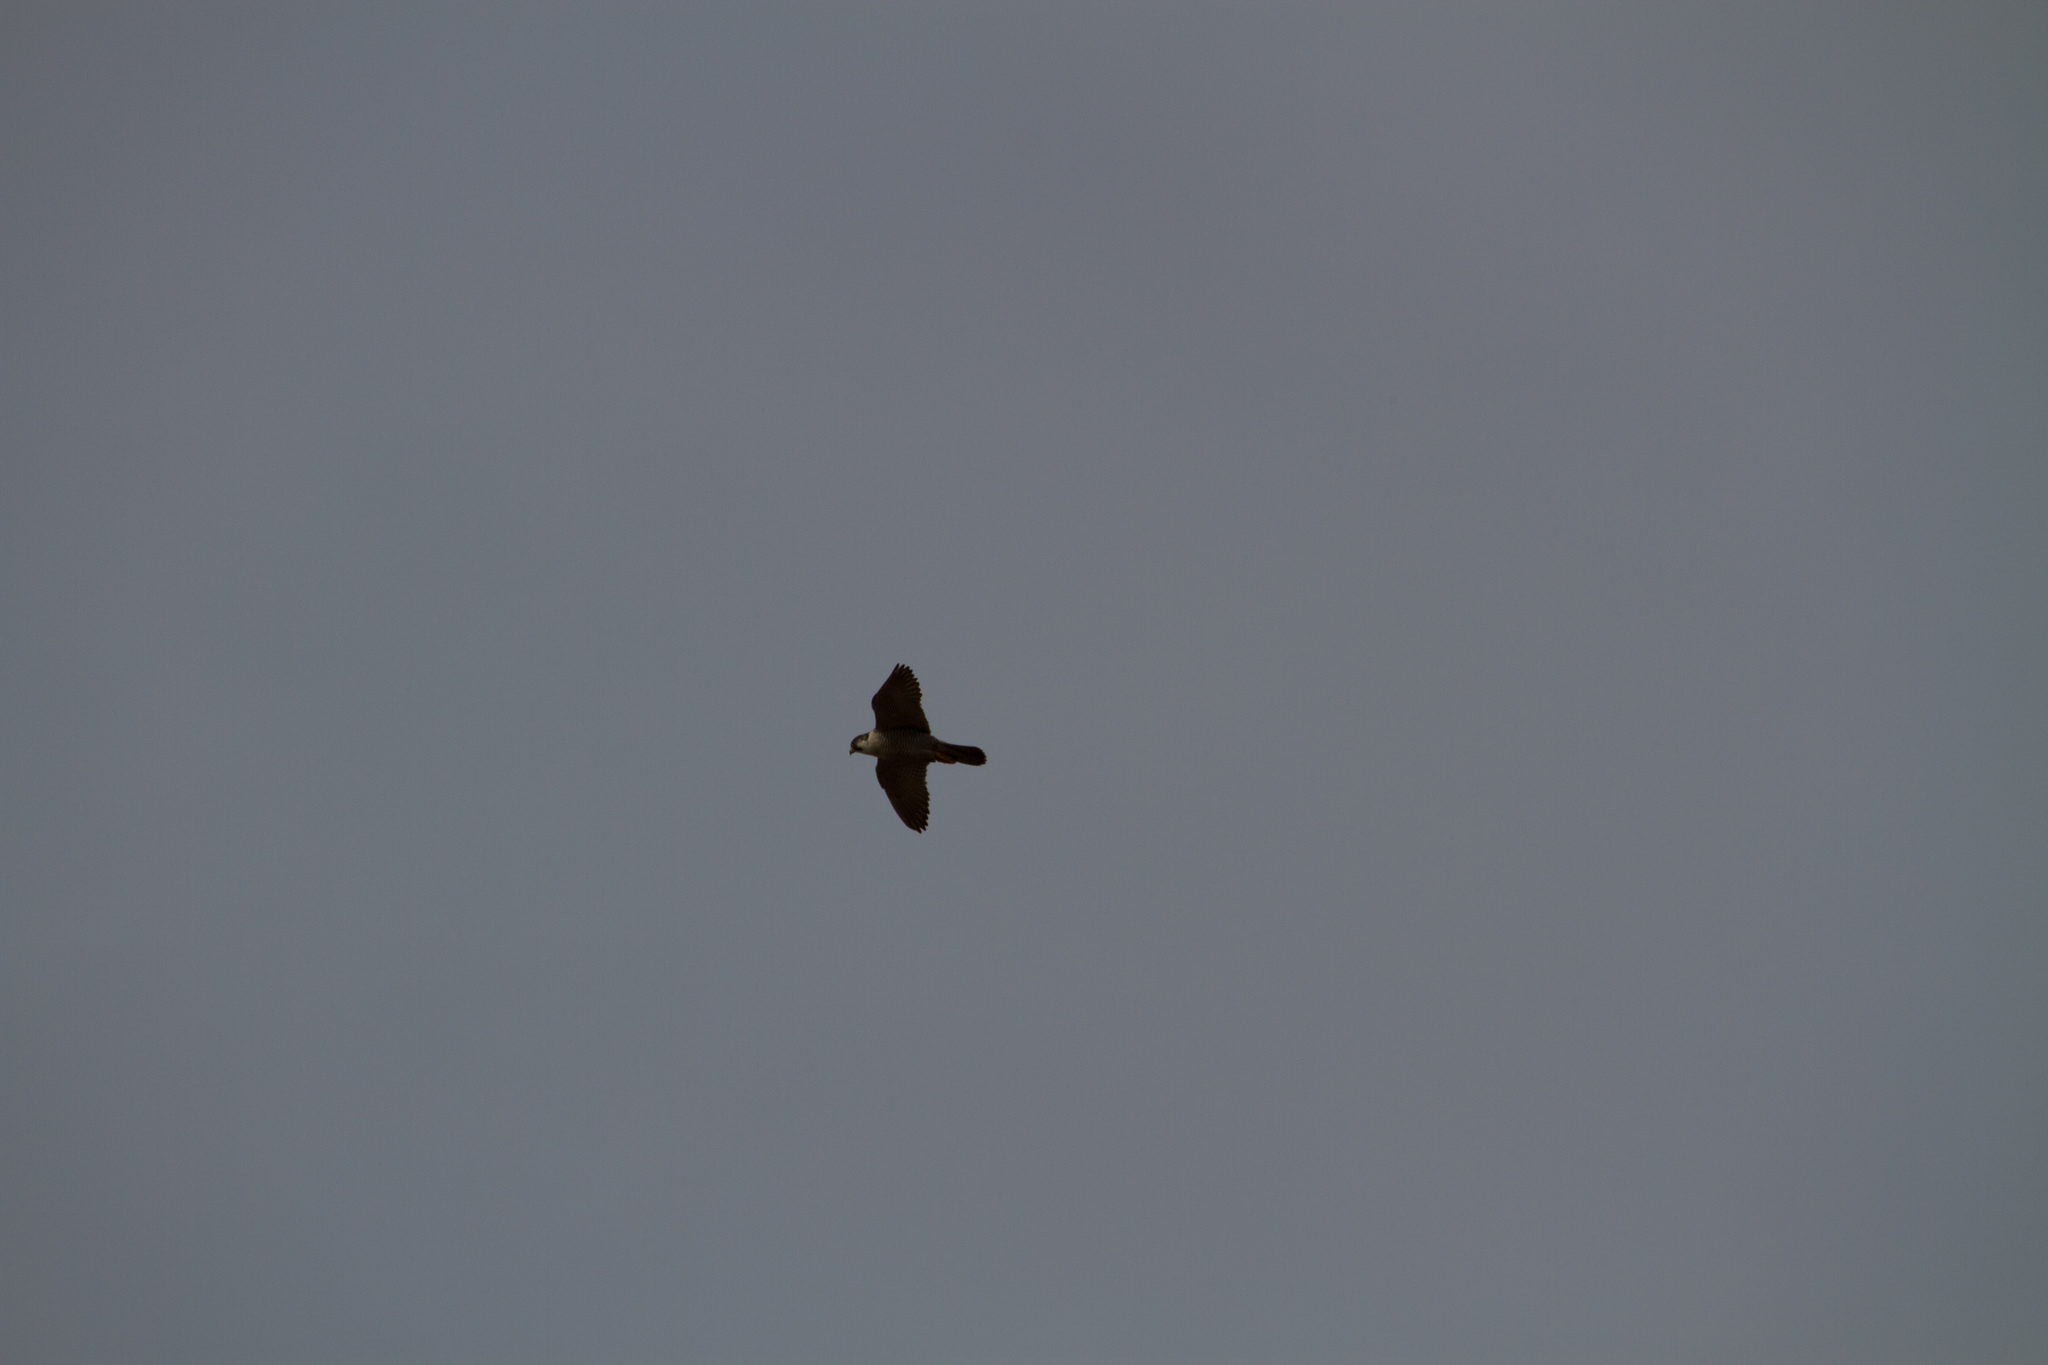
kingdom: Animalia
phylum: Chordata
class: Aves
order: Falconiformes
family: Falconidae
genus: Falco
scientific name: Falco peregrinus
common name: Peregrine falcon
